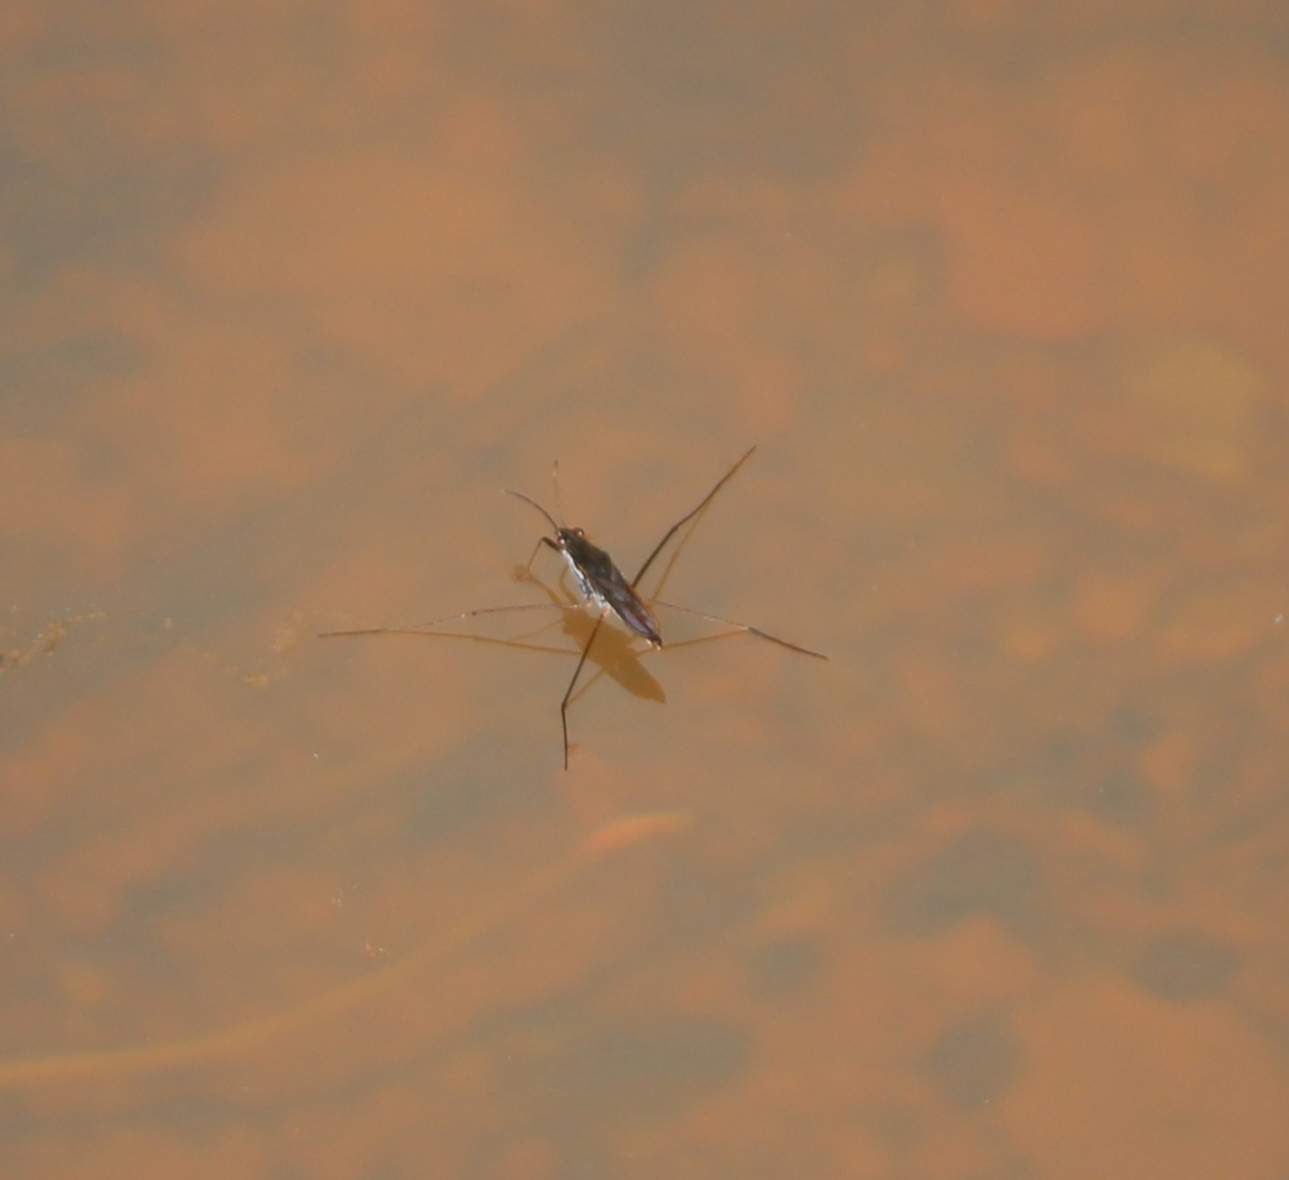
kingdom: Animalia
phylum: Arthropoda
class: Insecta
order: Hemiptera
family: Gerridae
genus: Gerris
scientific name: Gerris
